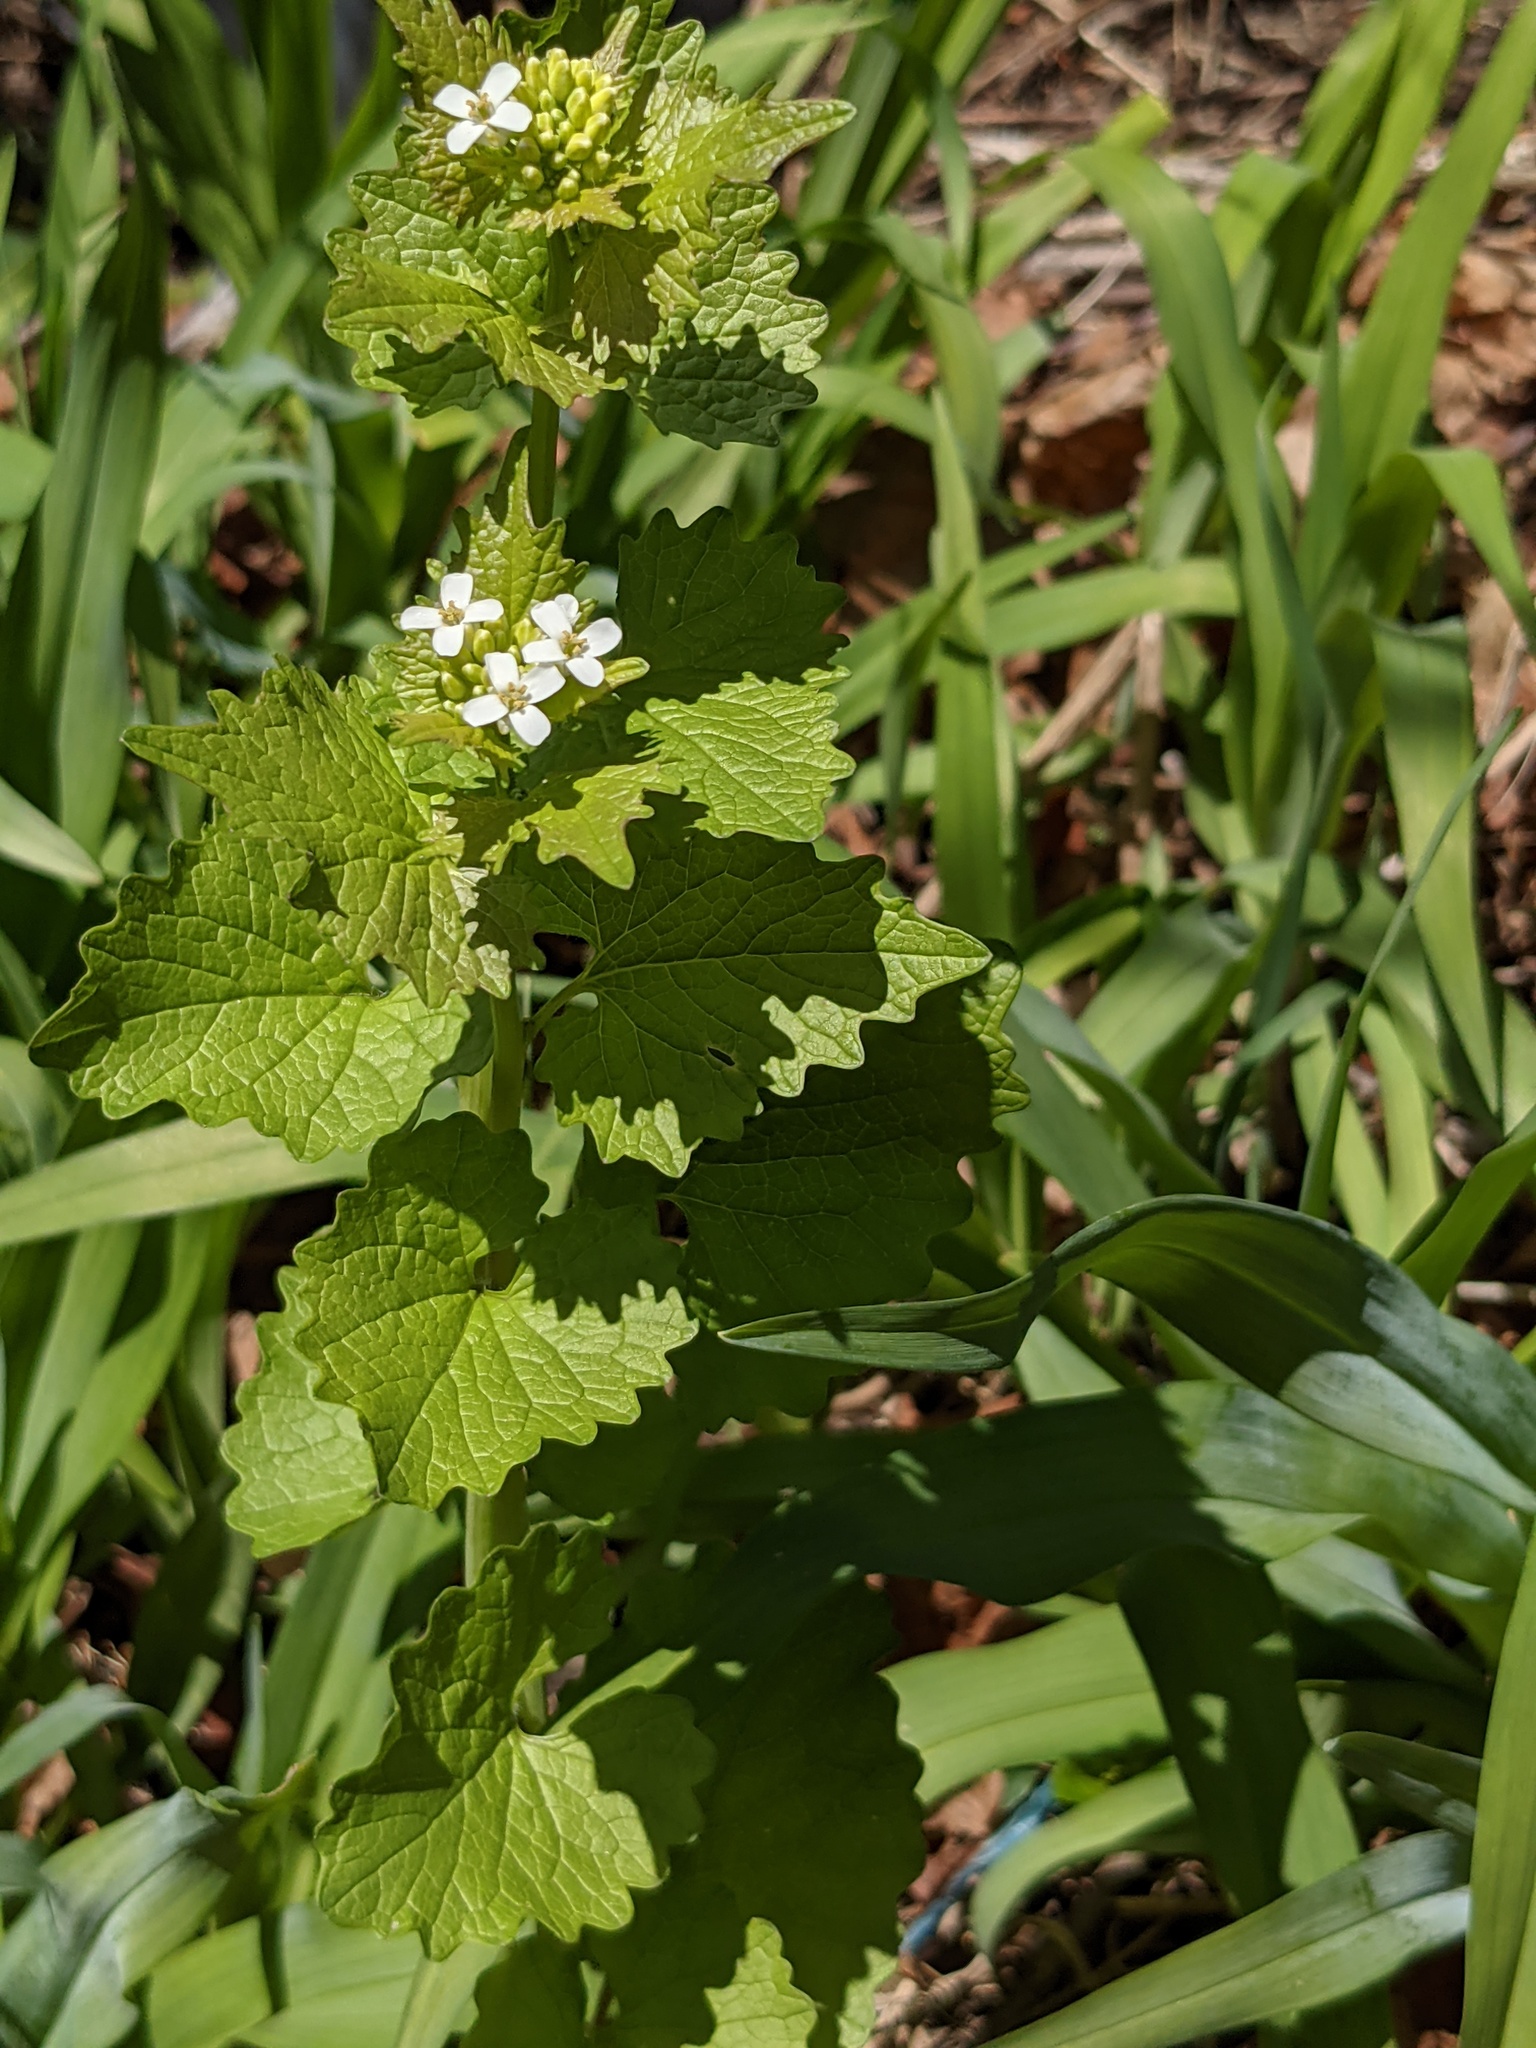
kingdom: Plantae
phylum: Tracheophyta
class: Magnoliopsida
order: Brassicales
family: Brassicaceae
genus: Alliaria
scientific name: Alliaria petiolata
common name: Garlic mustard
